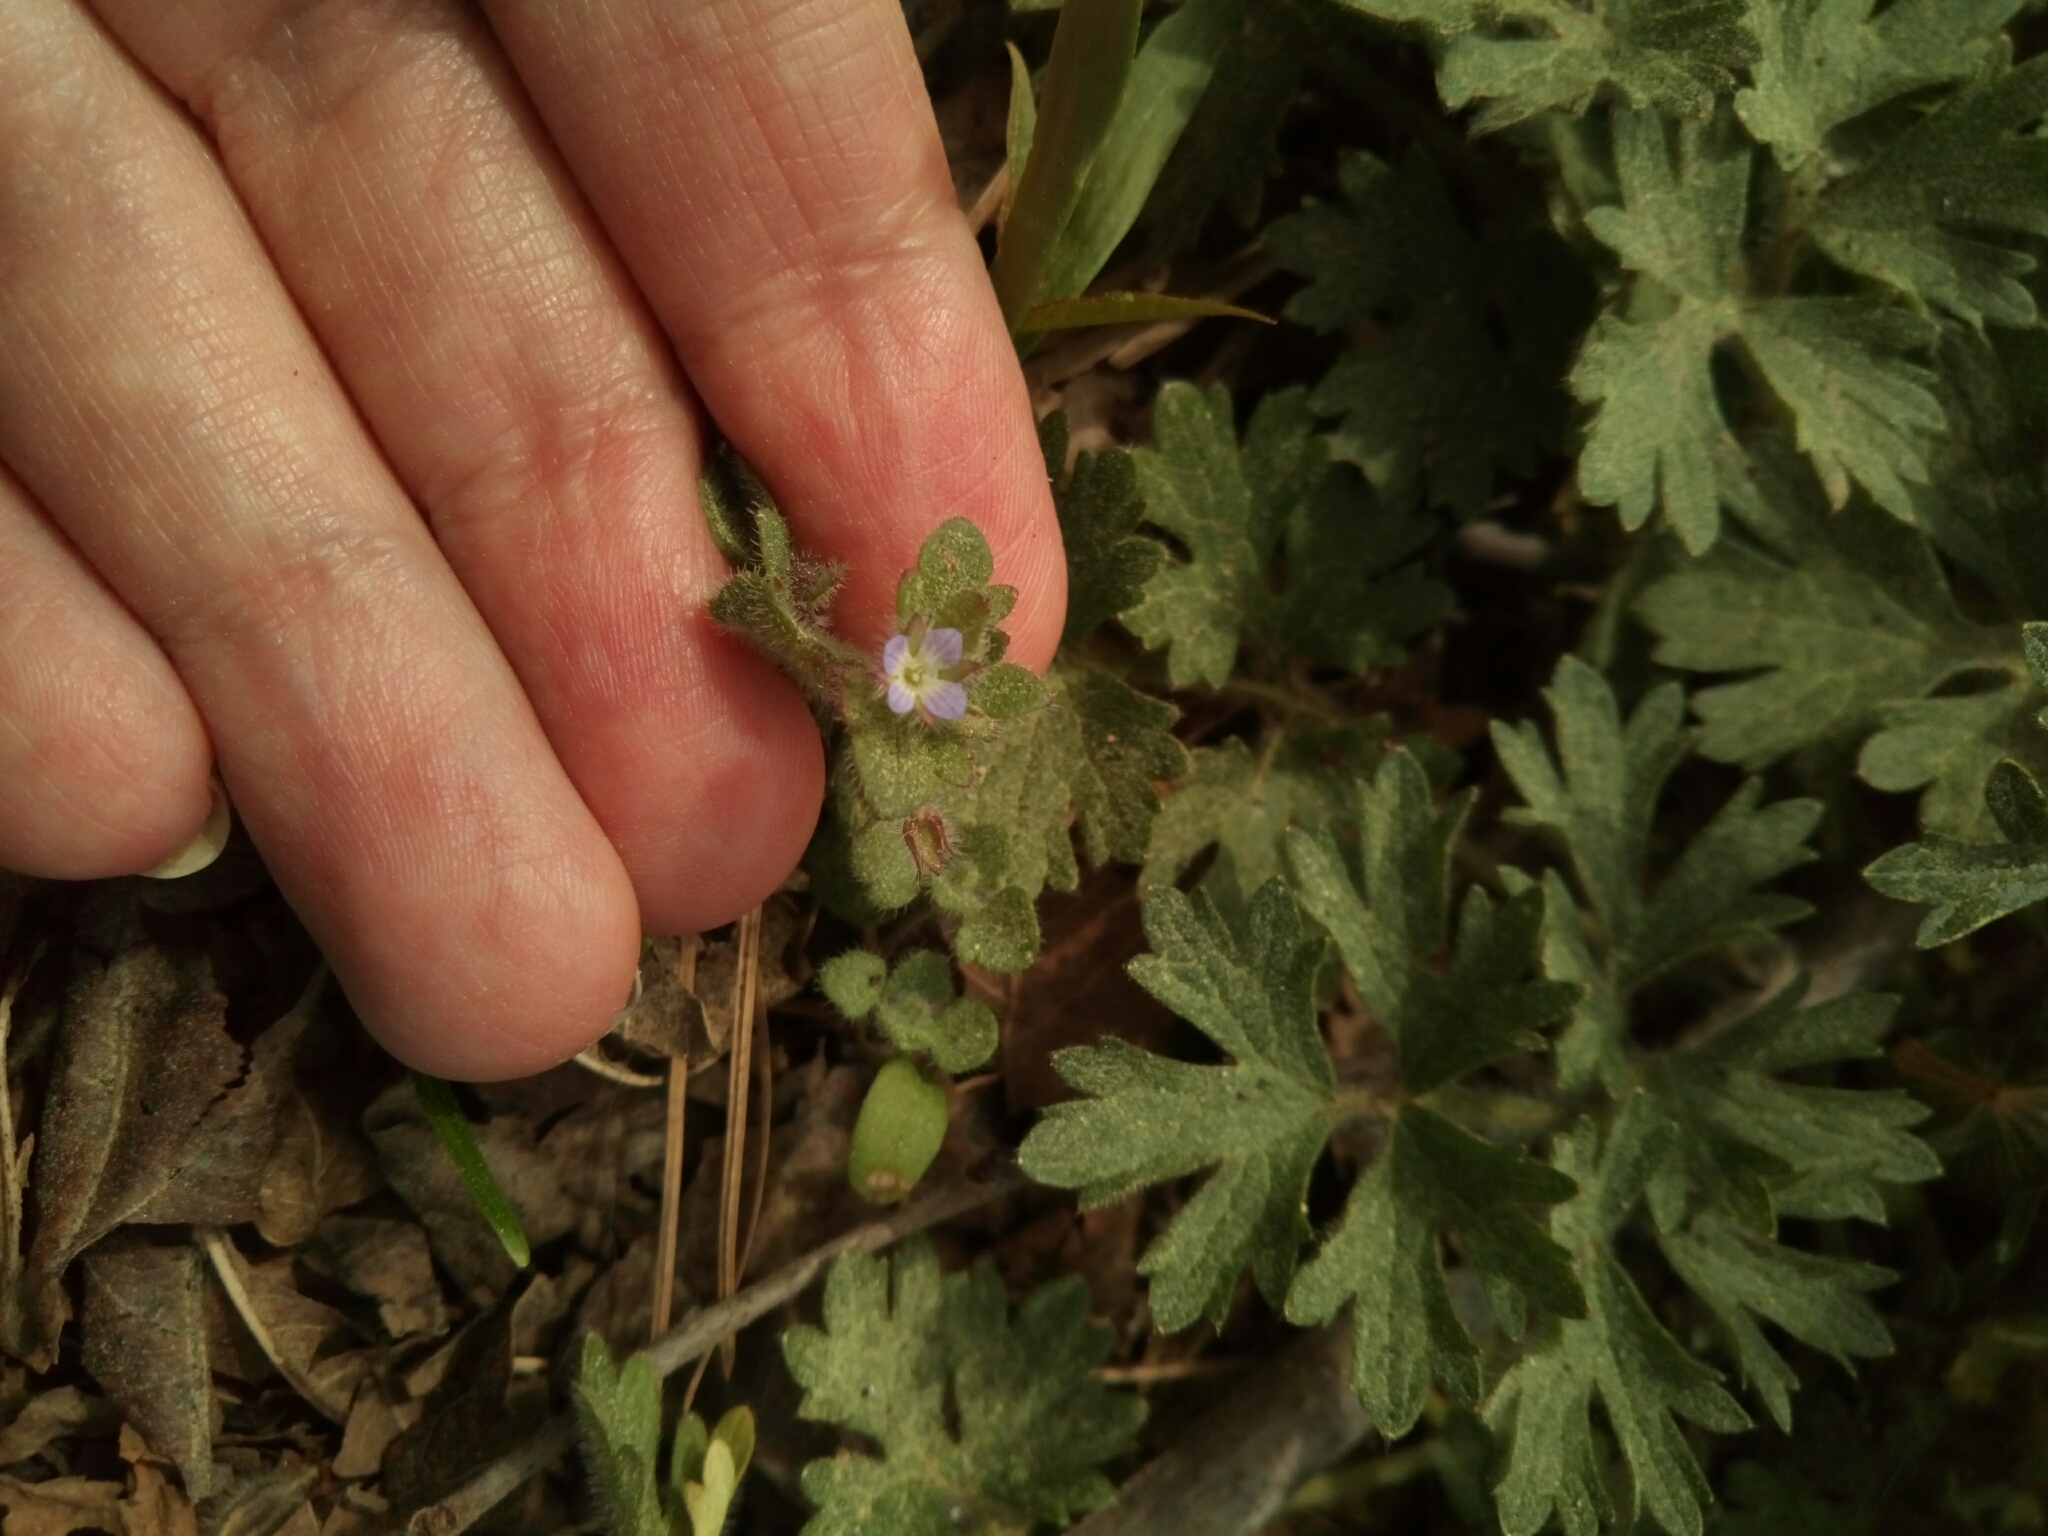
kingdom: Plantae
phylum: Tracheophyta
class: Magnoliopsida
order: Lamiales
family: Plantaginaceae
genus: Veronica
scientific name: Veronica hederifolia
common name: Ivy-leaved speedwell
